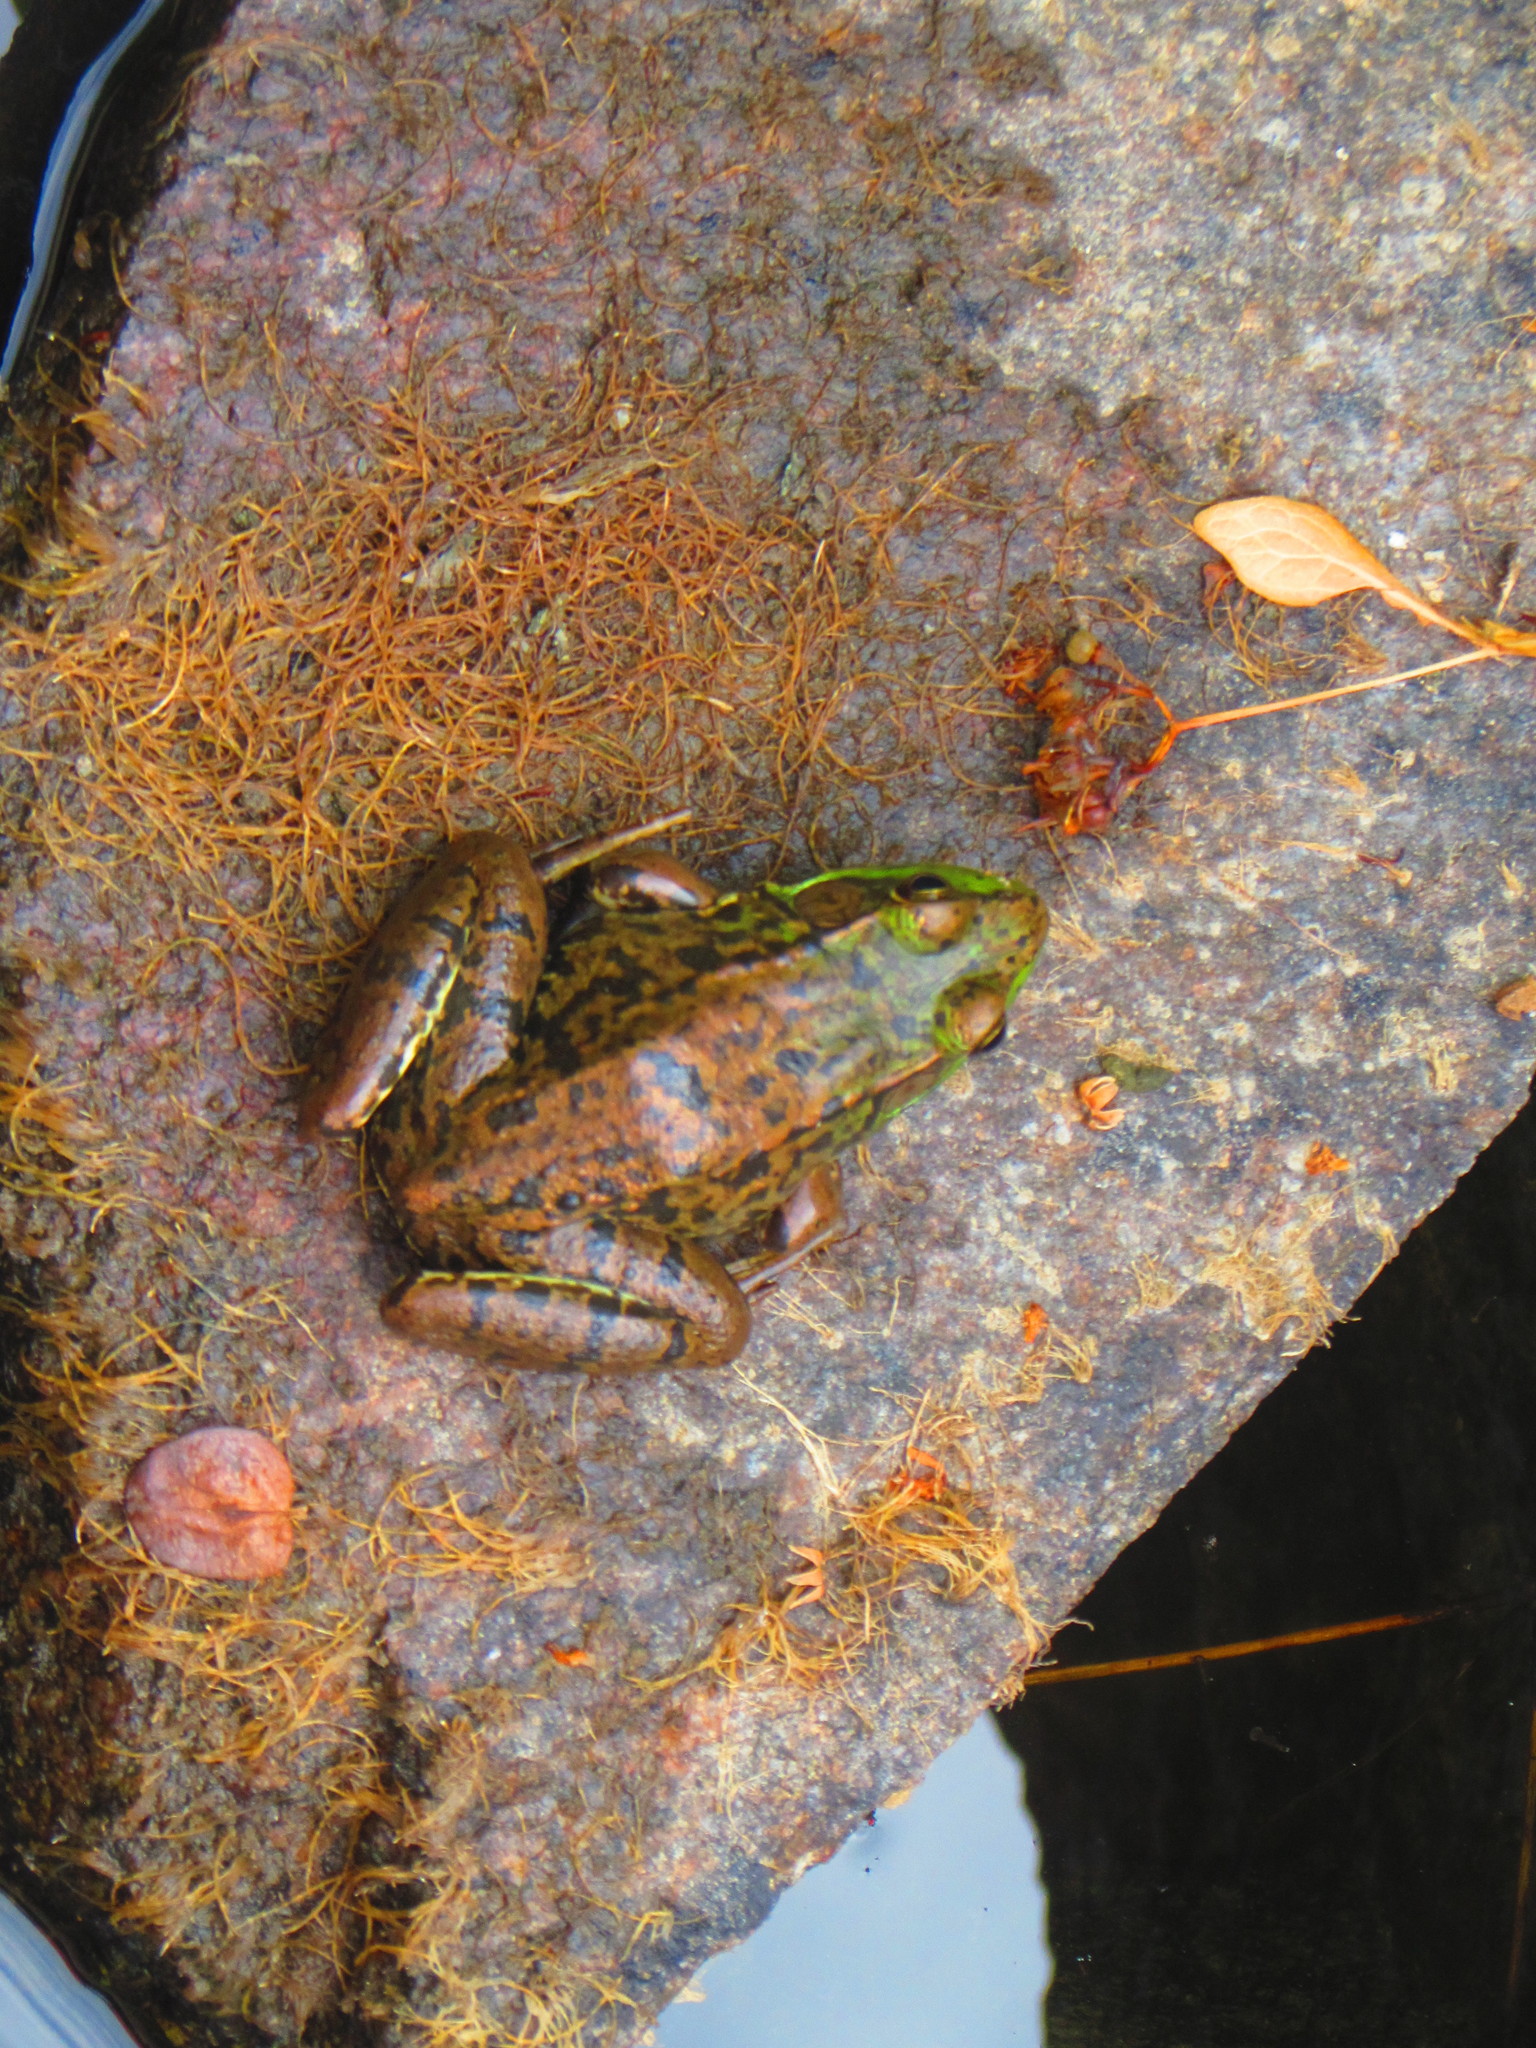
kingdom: Animalia
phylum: Chordata
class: Amphibia
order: Anura
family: Ranidae
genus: Lithobates
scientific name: Lithobates clamitans
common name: Green frog
